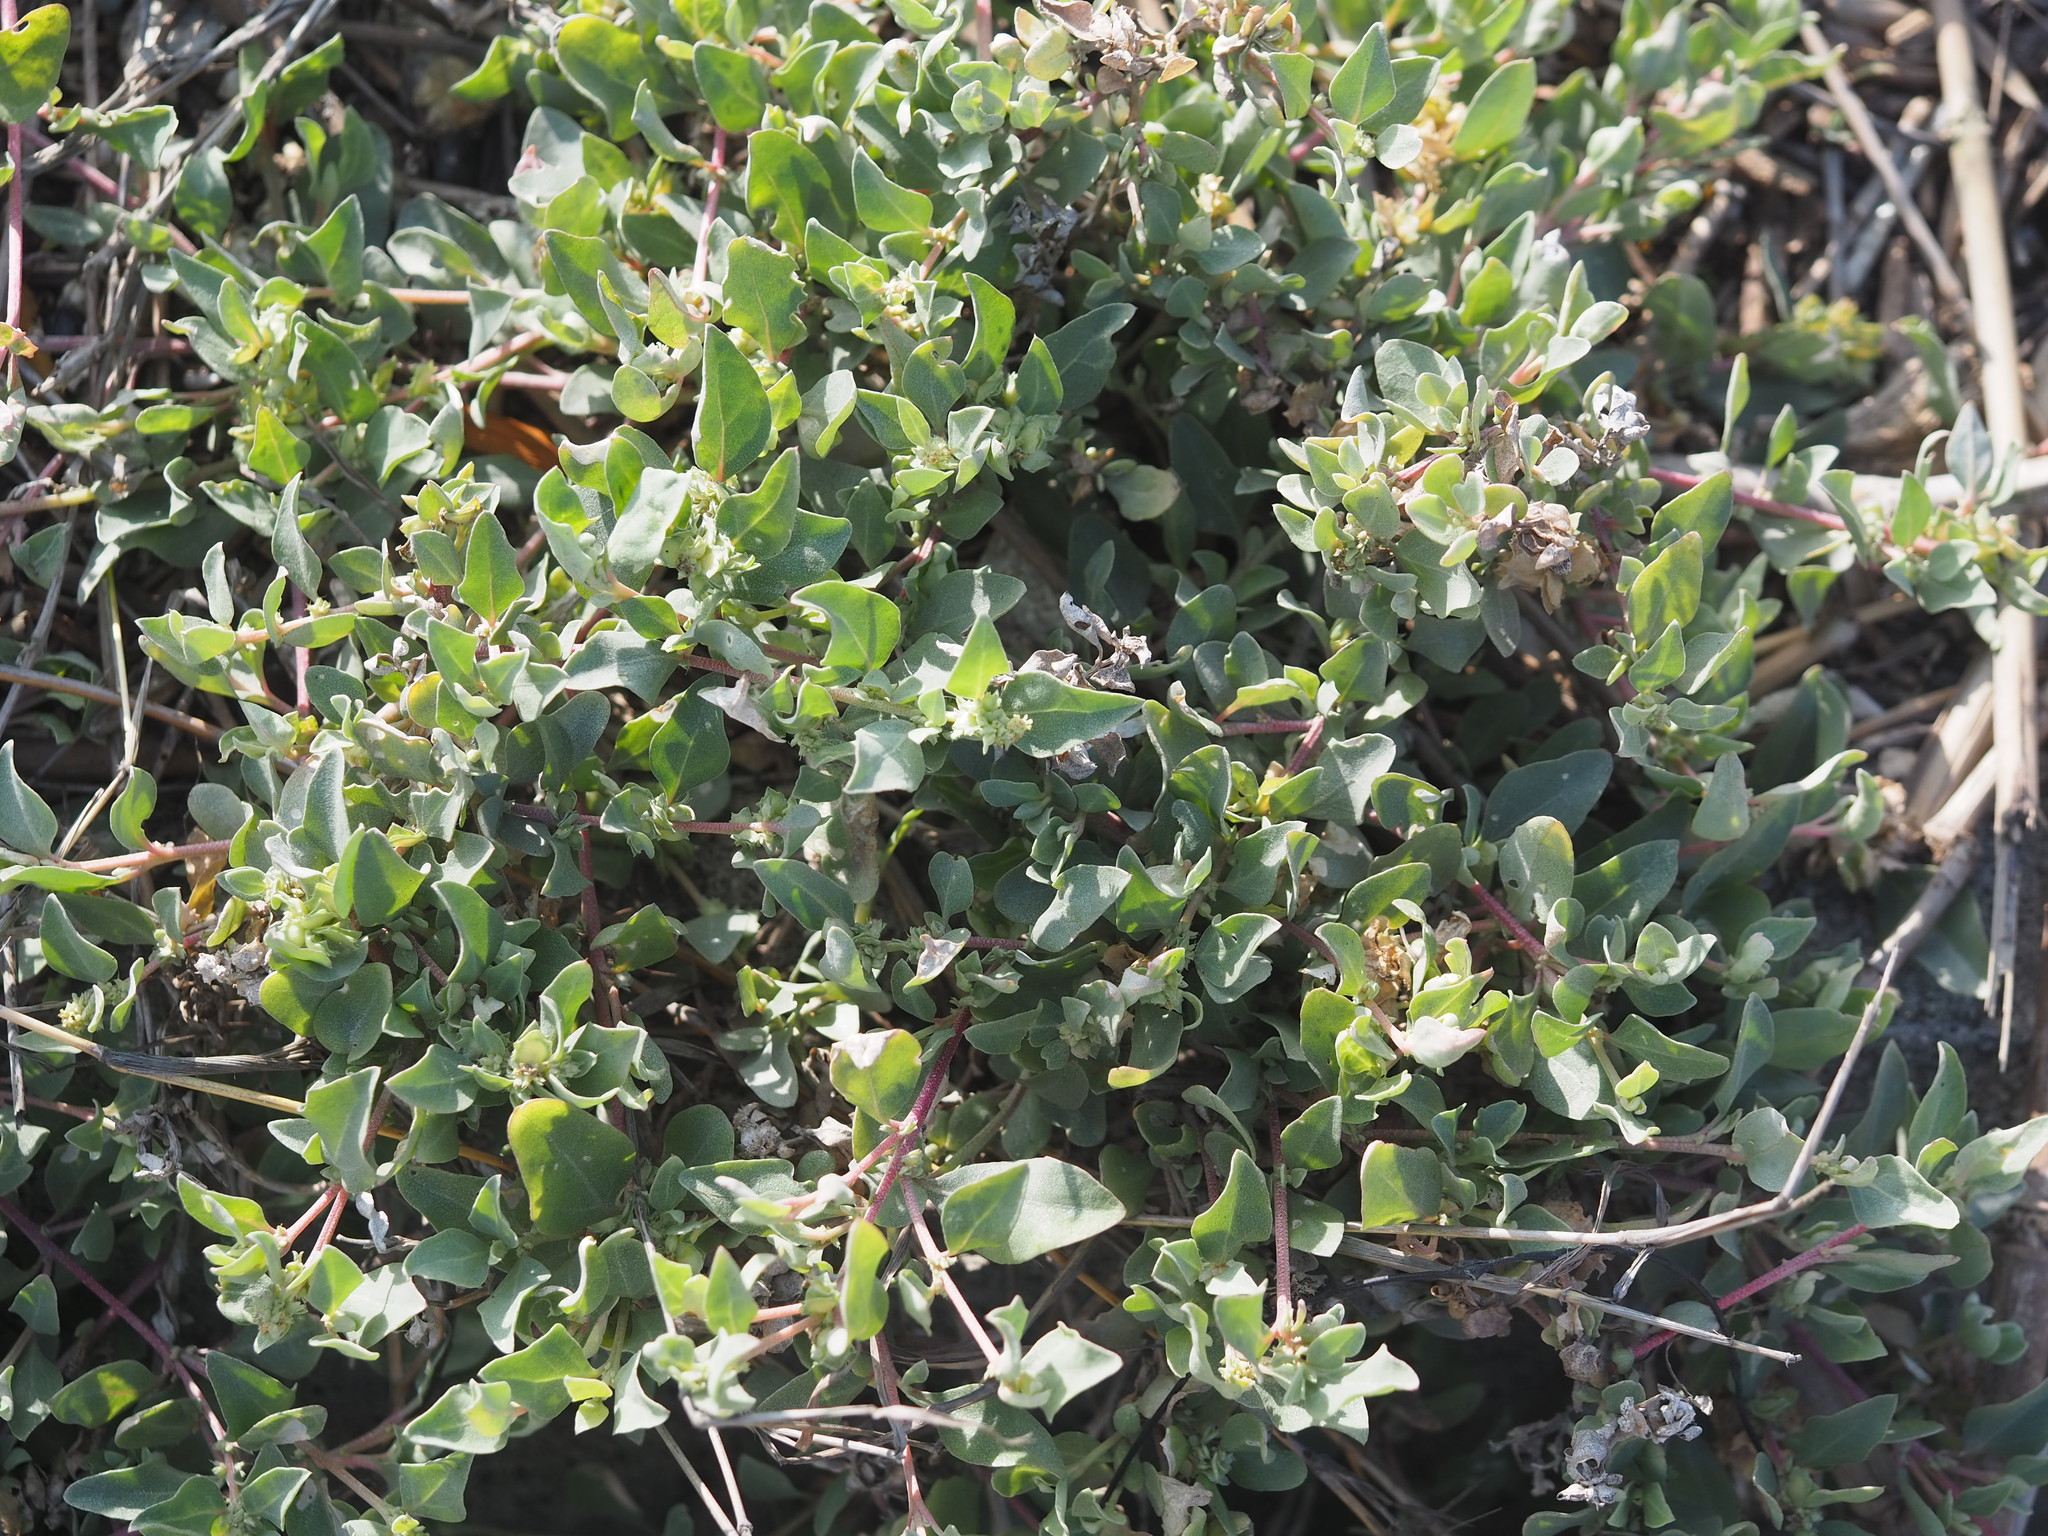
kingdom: Plantae
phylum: Tracheophyta
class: Magnoliopsida
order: Caryophyllales
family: Amaranthaceae
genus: Atriplex
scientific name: Atriplex maximowicziana
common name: Maximowicz's saltbush
